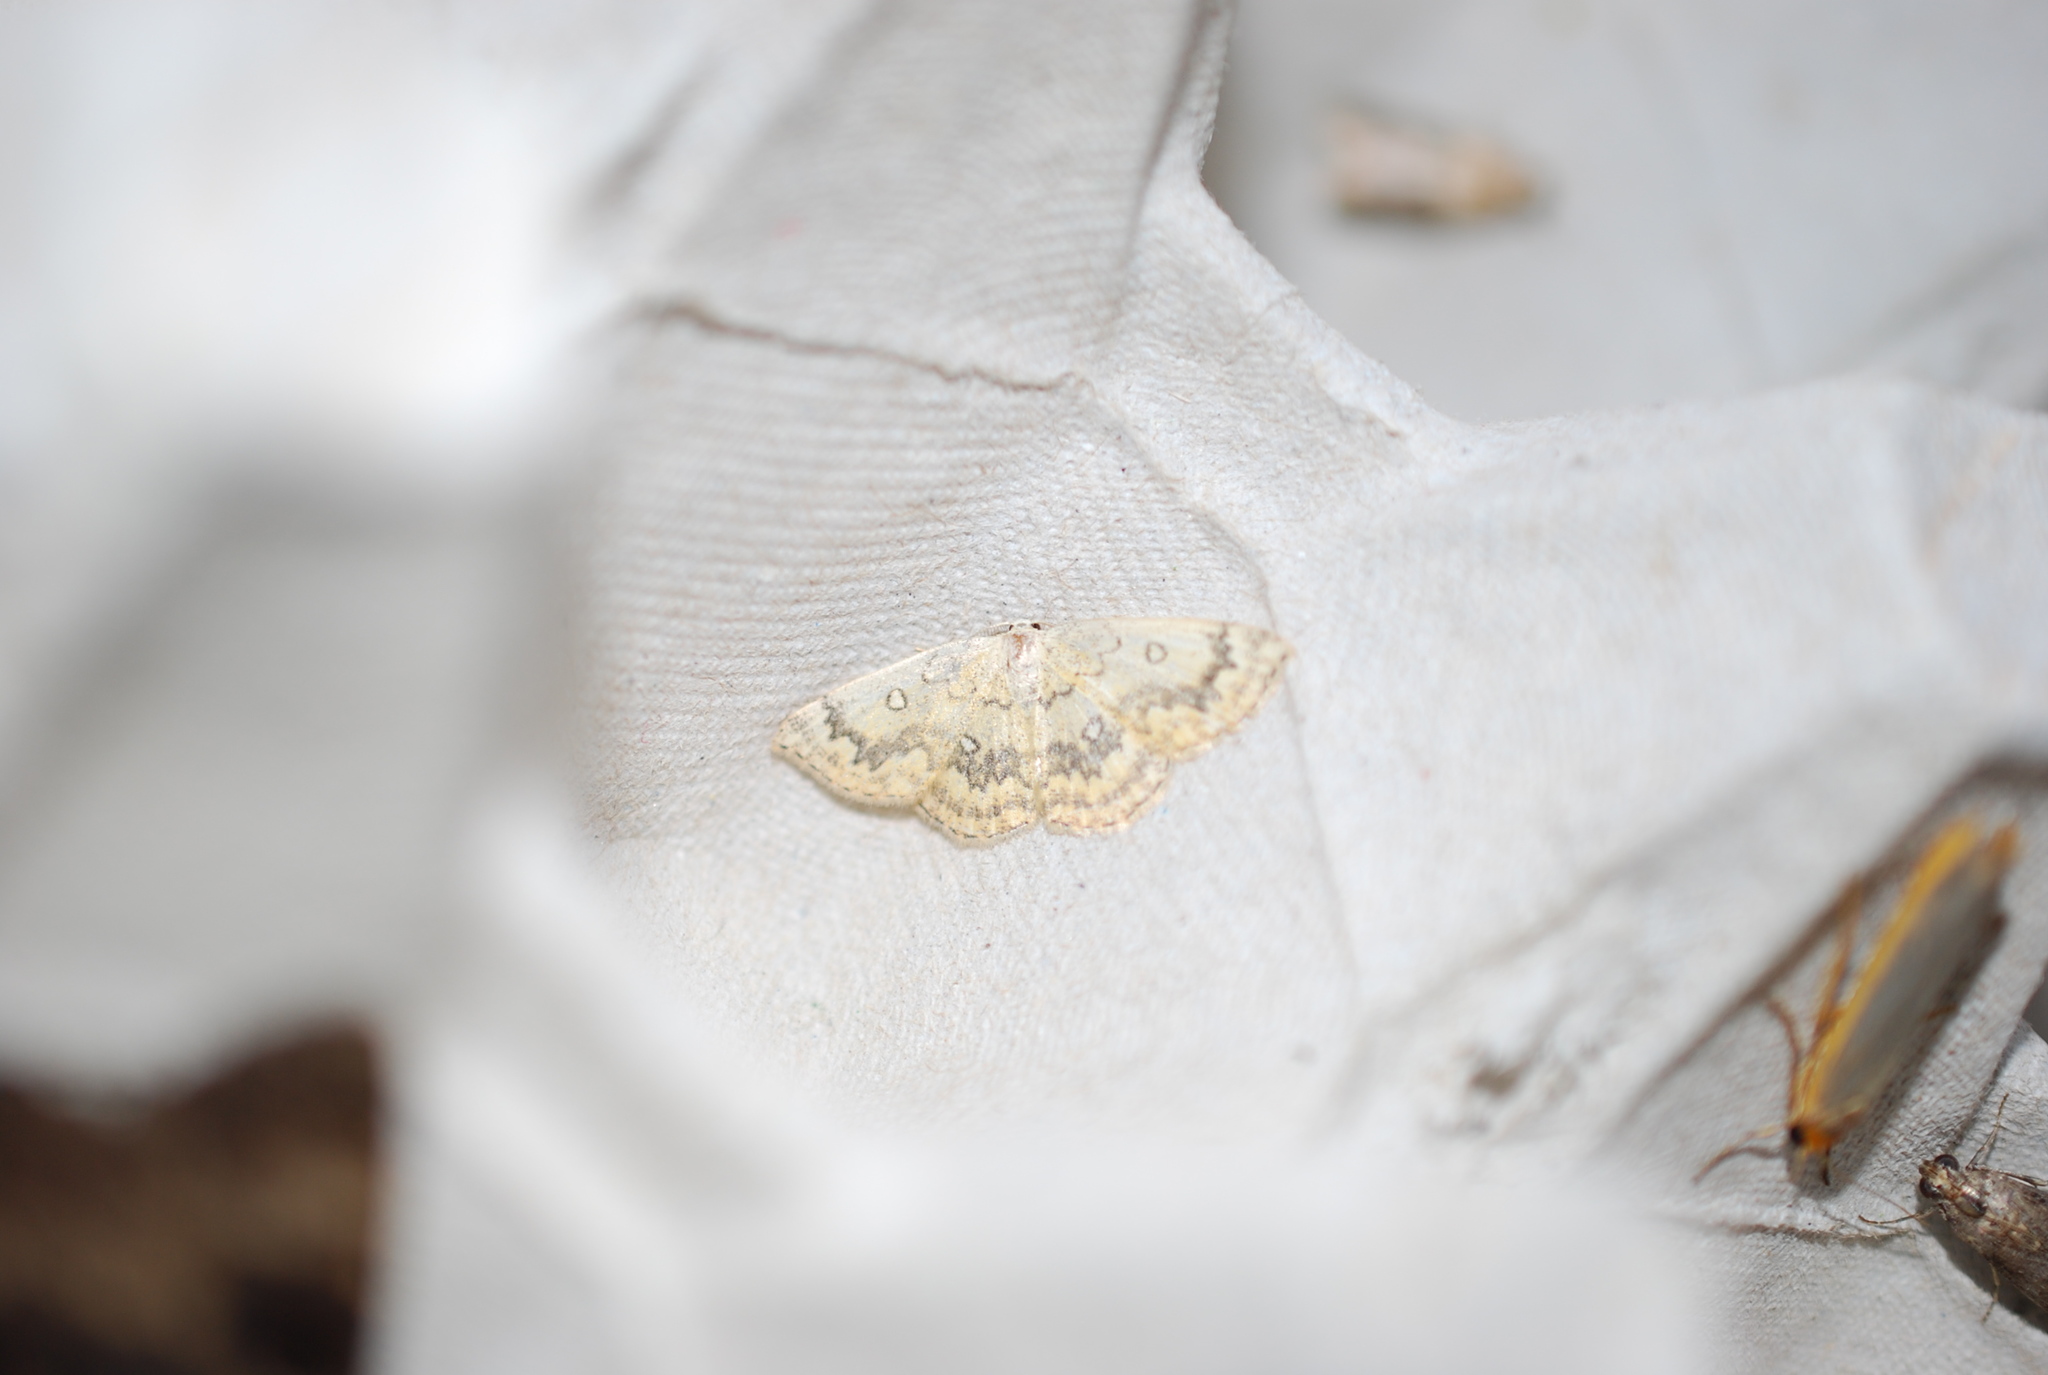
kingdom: Animalia
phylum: Arthropoda
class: Insecta
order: Lepidoptera
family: Geometridae
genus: Cyclophora
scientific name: Cyclophora annularia
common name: Mocha
